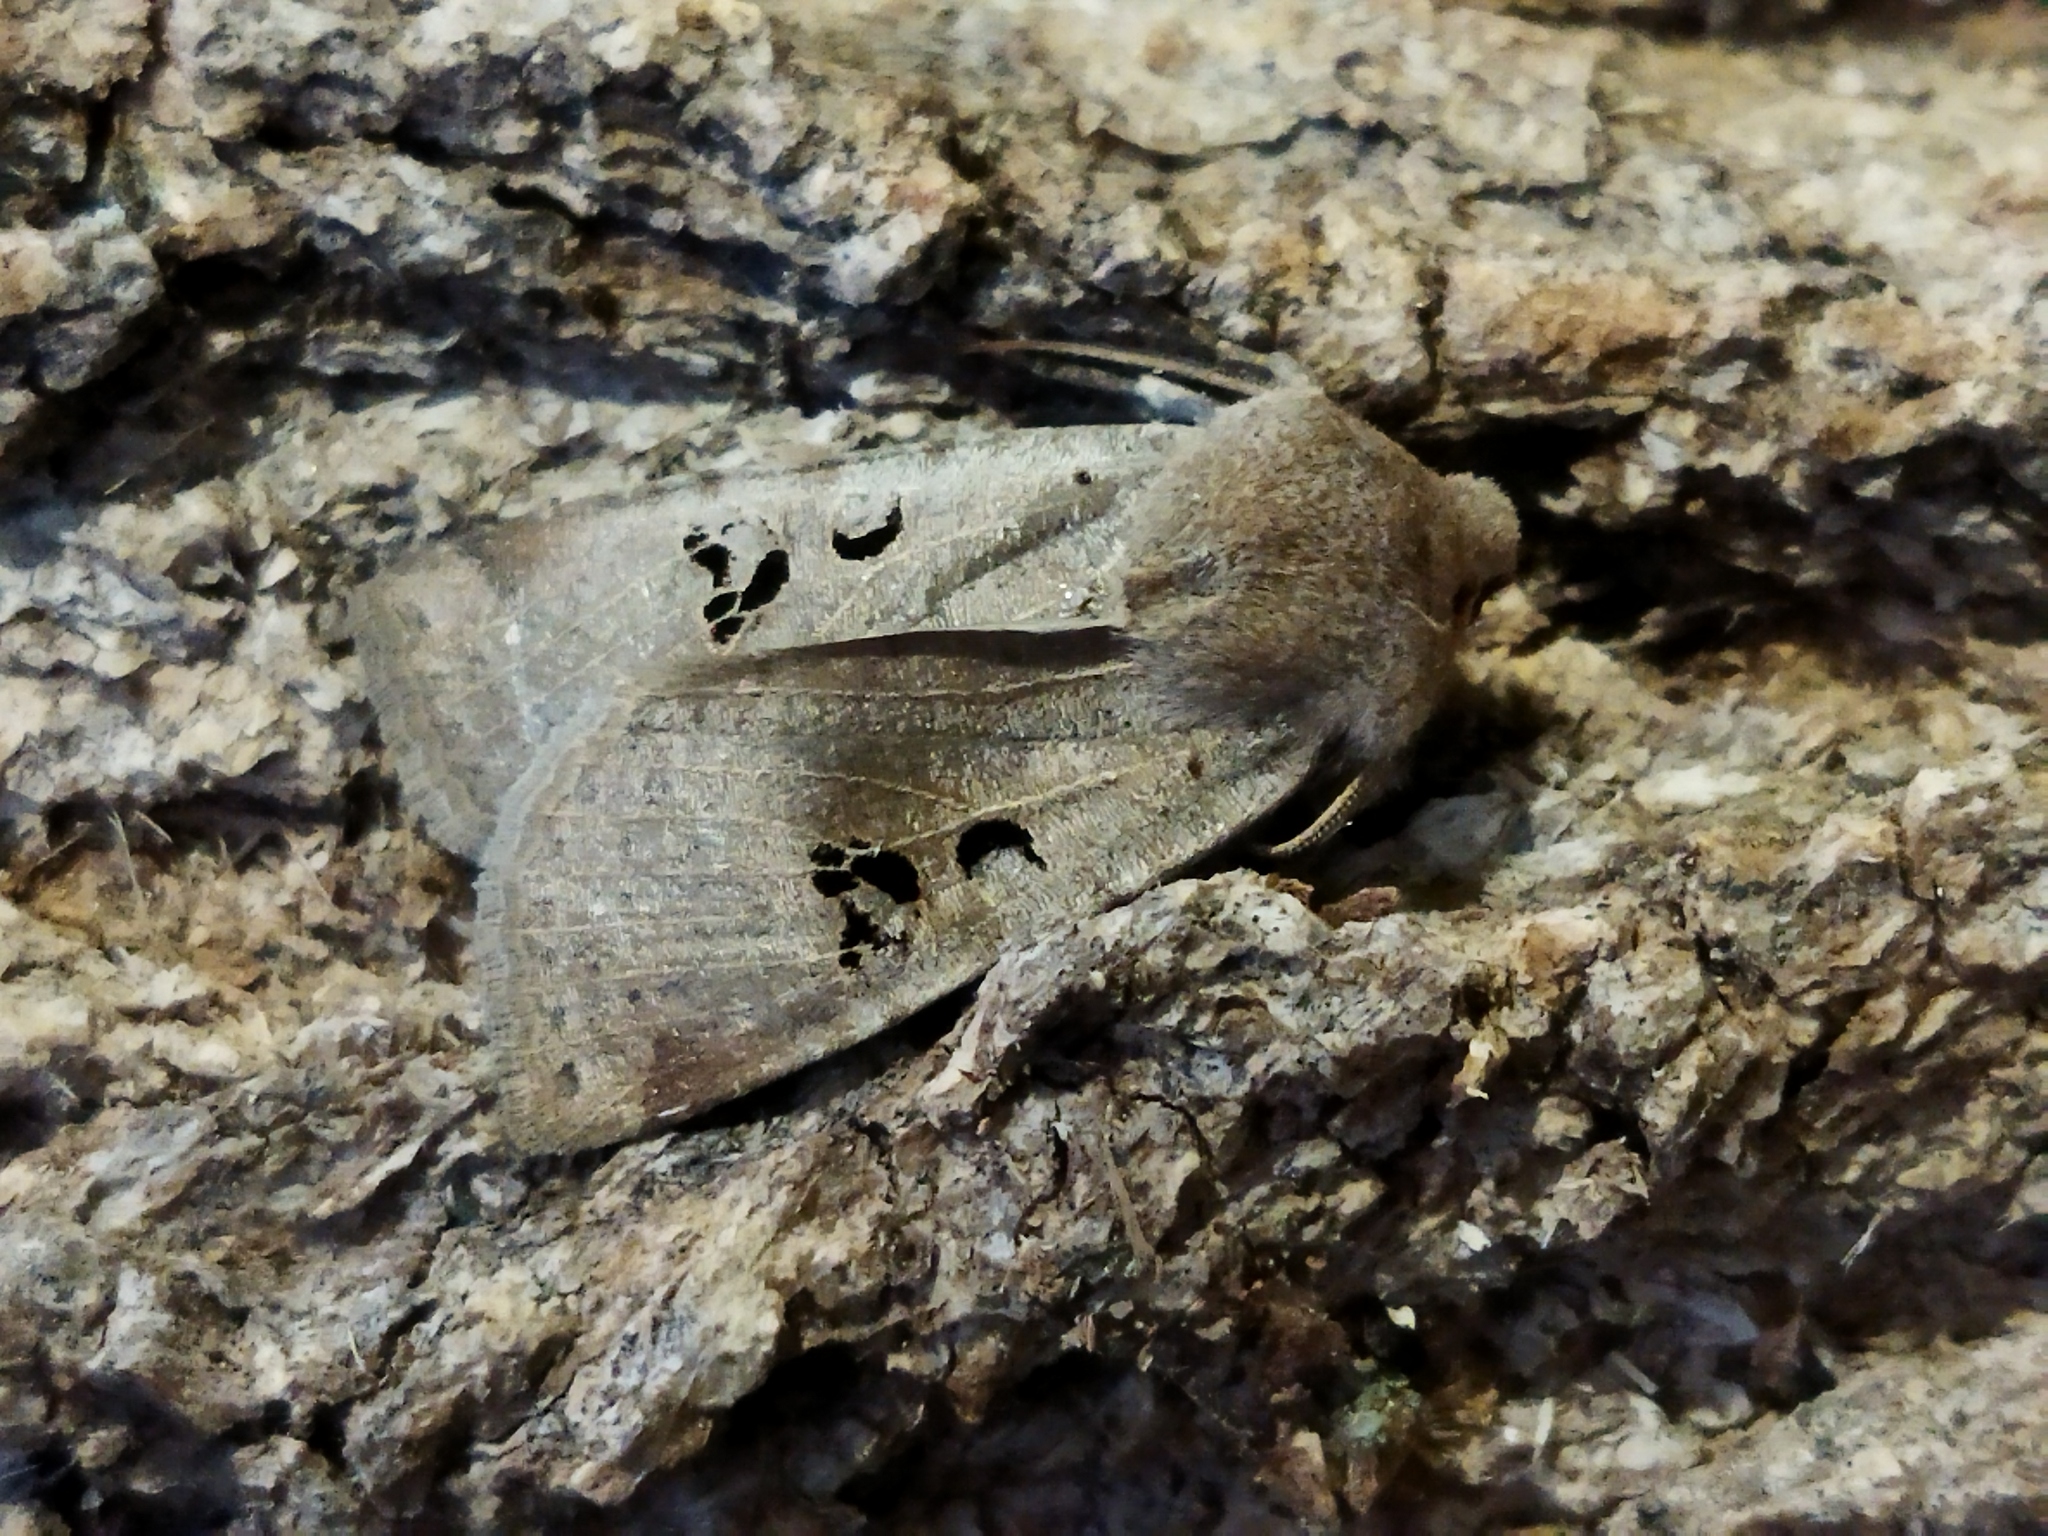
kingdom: Animalia
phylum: Arthropoda
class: Insecta
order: Lepidoptera
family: Noctuidae
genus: Conistra
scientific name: Conistra rubiginosa
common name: Black-spotted chestnut
